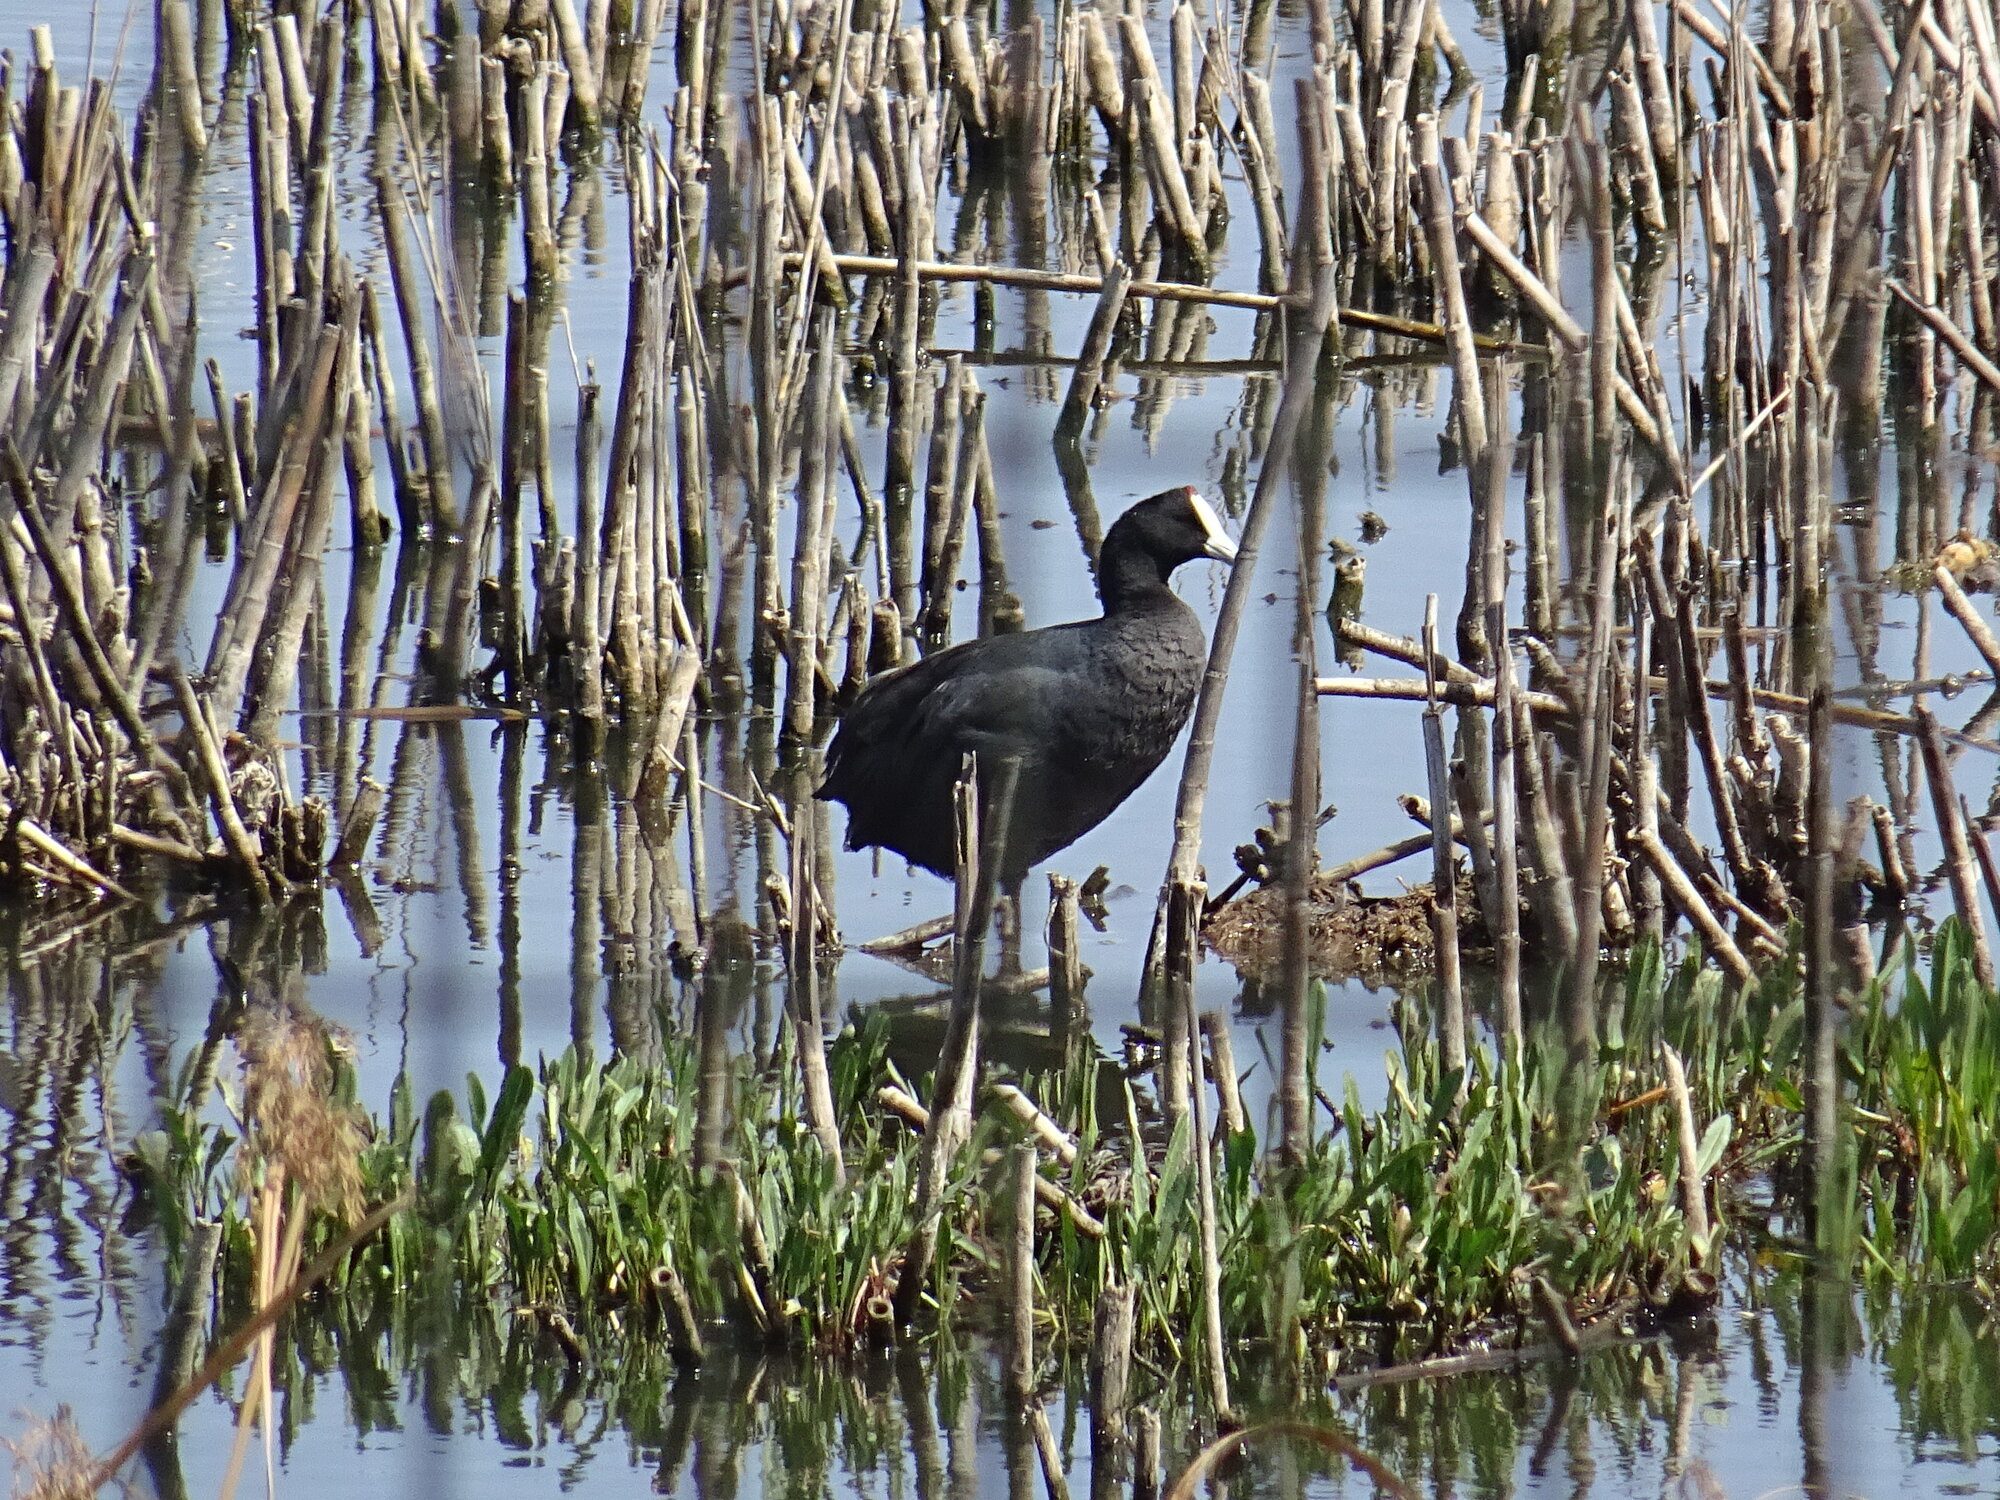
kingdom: Animalia
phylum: Chordata
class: Aves
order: Gruiformes
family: Rallidae
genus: Fulica
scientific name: Fulica cristata
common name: Red-knobbed coot
